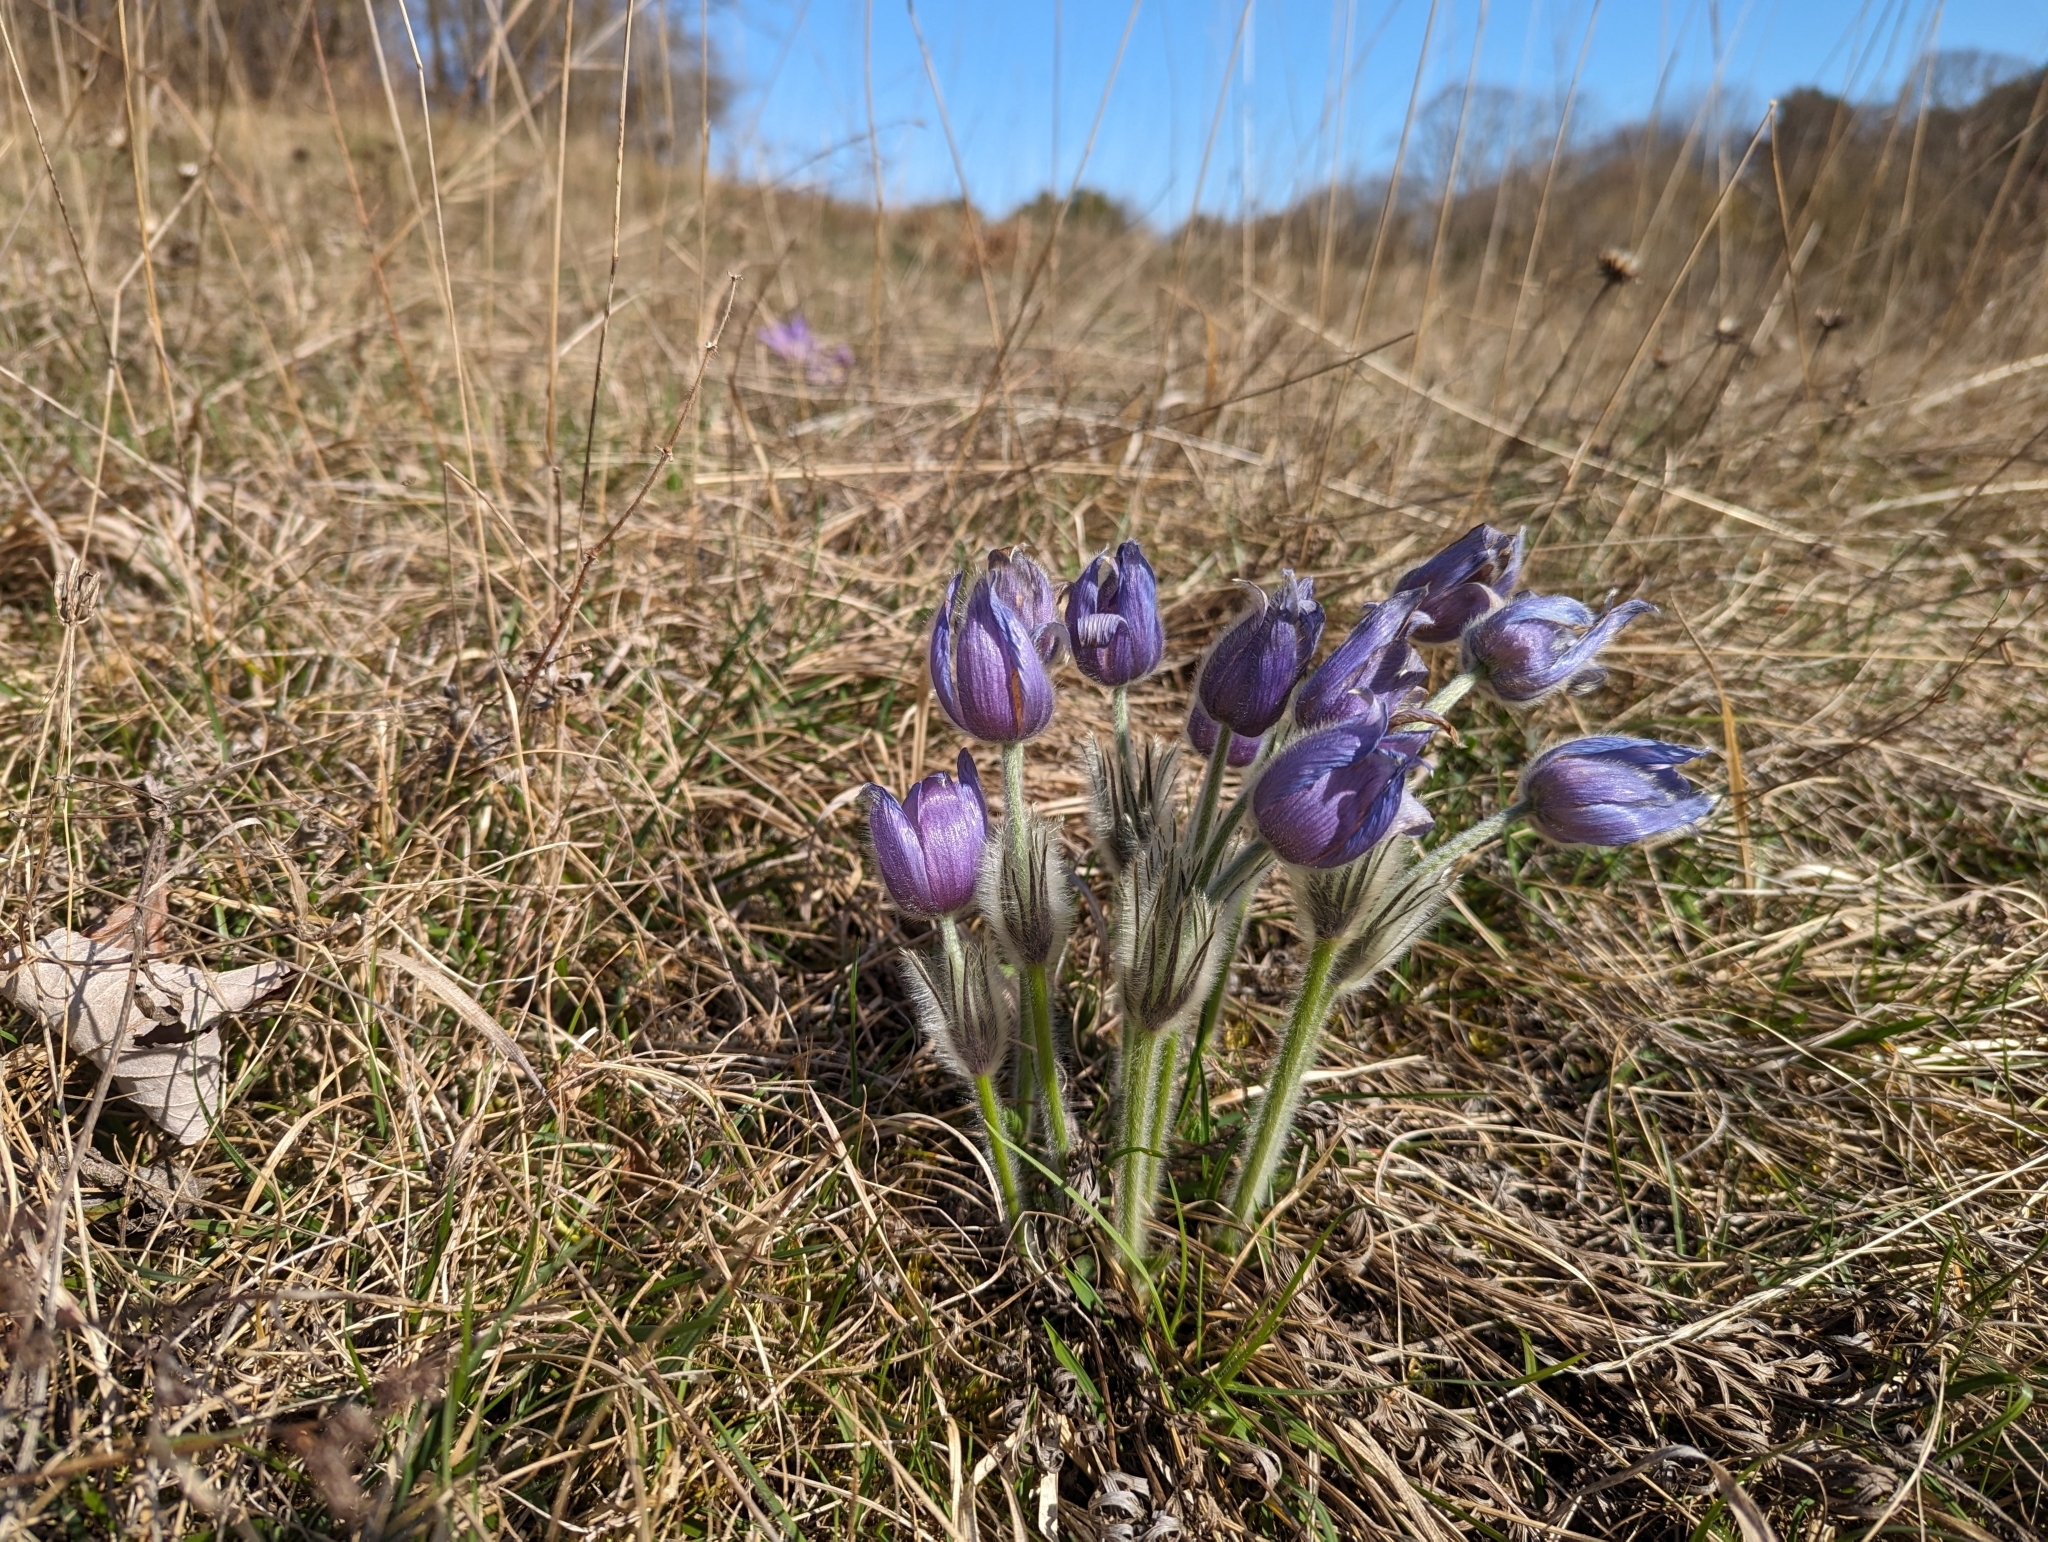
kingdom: Plantae
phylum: Tracheophyta
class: Magnoliopsida
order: Ranunculales
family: Ranunculaceae
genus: Pulsatilla
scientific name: Pulsatilla grandis
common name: Greater pasque flower
